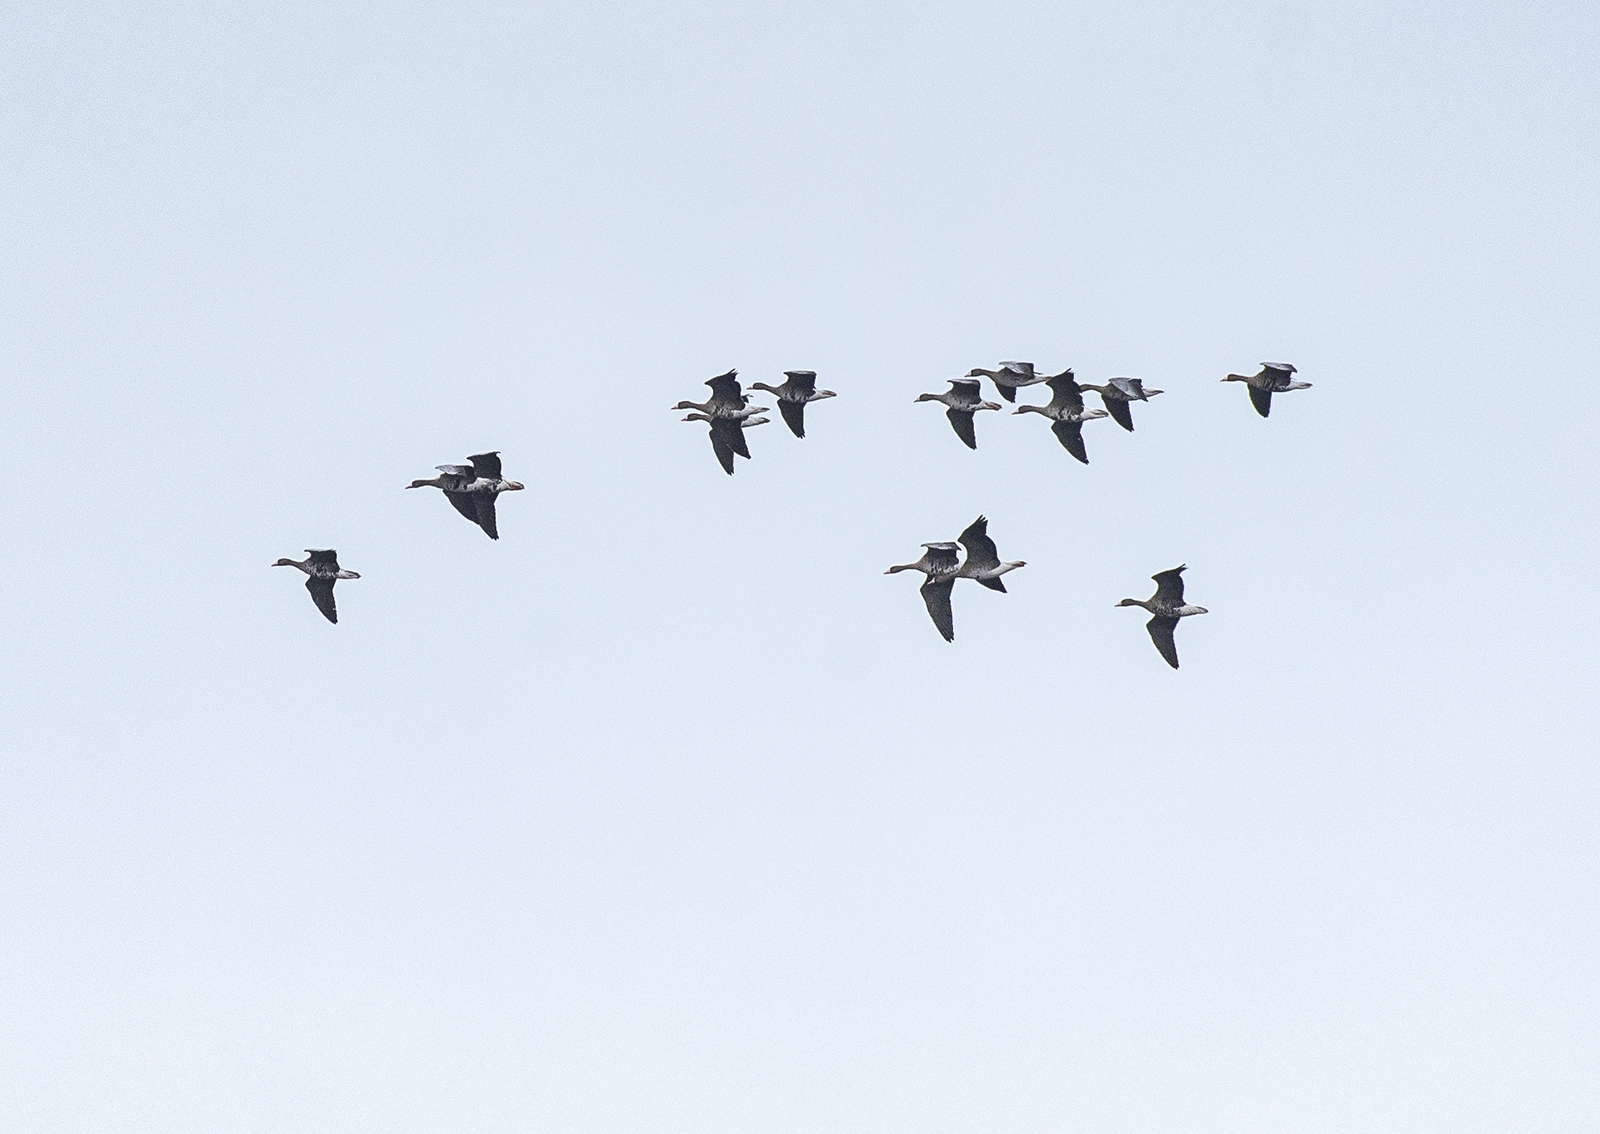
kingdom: Animalia
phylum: Chordata
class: Aves
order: Anseriformes
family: Anatidae
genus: Anser
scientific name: Anser albifrons
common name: Greater white-fronted goose
